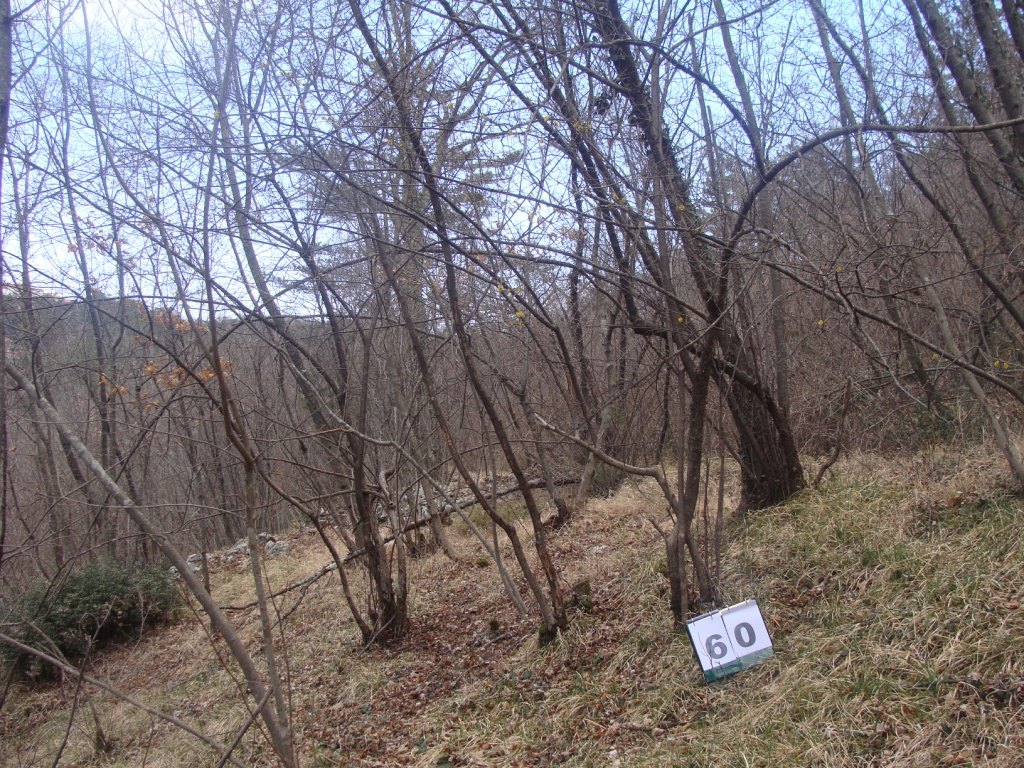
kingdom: Plantae
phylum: Tracheophyta
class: Magnoliopsida
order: Cornales
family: Cornaceae
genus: Cornus
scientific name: Cornus mas
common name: Cornelian-cherry
